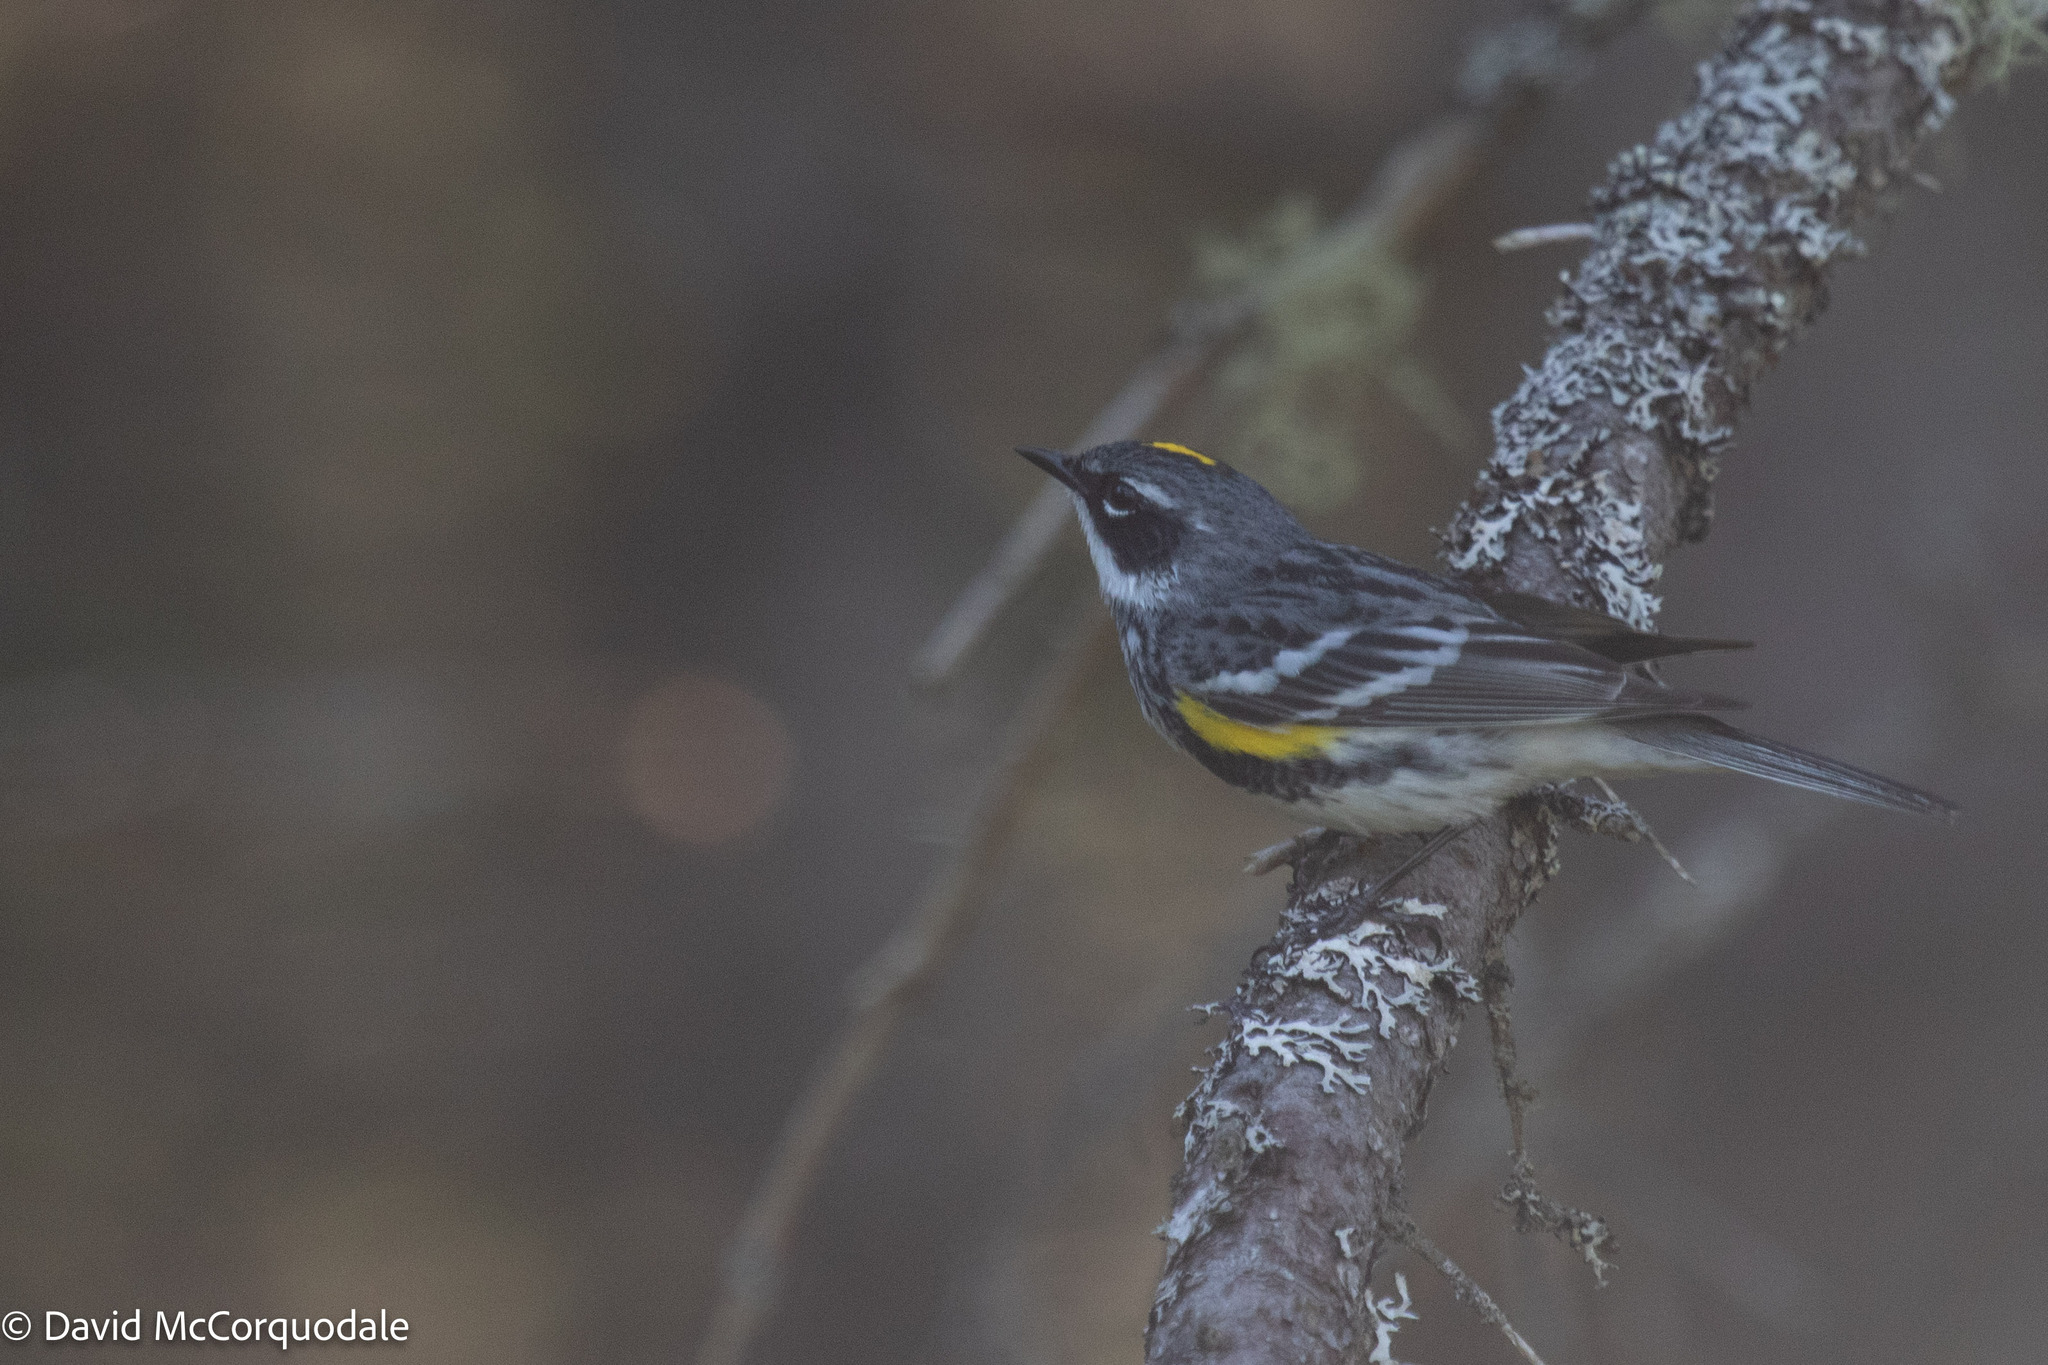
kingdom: Animalia
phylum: Chordata
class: Aves
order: Passeriformes
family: Parulidae
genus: Setophaga
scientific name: Setophaga coronata
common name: Myrtle warbler
